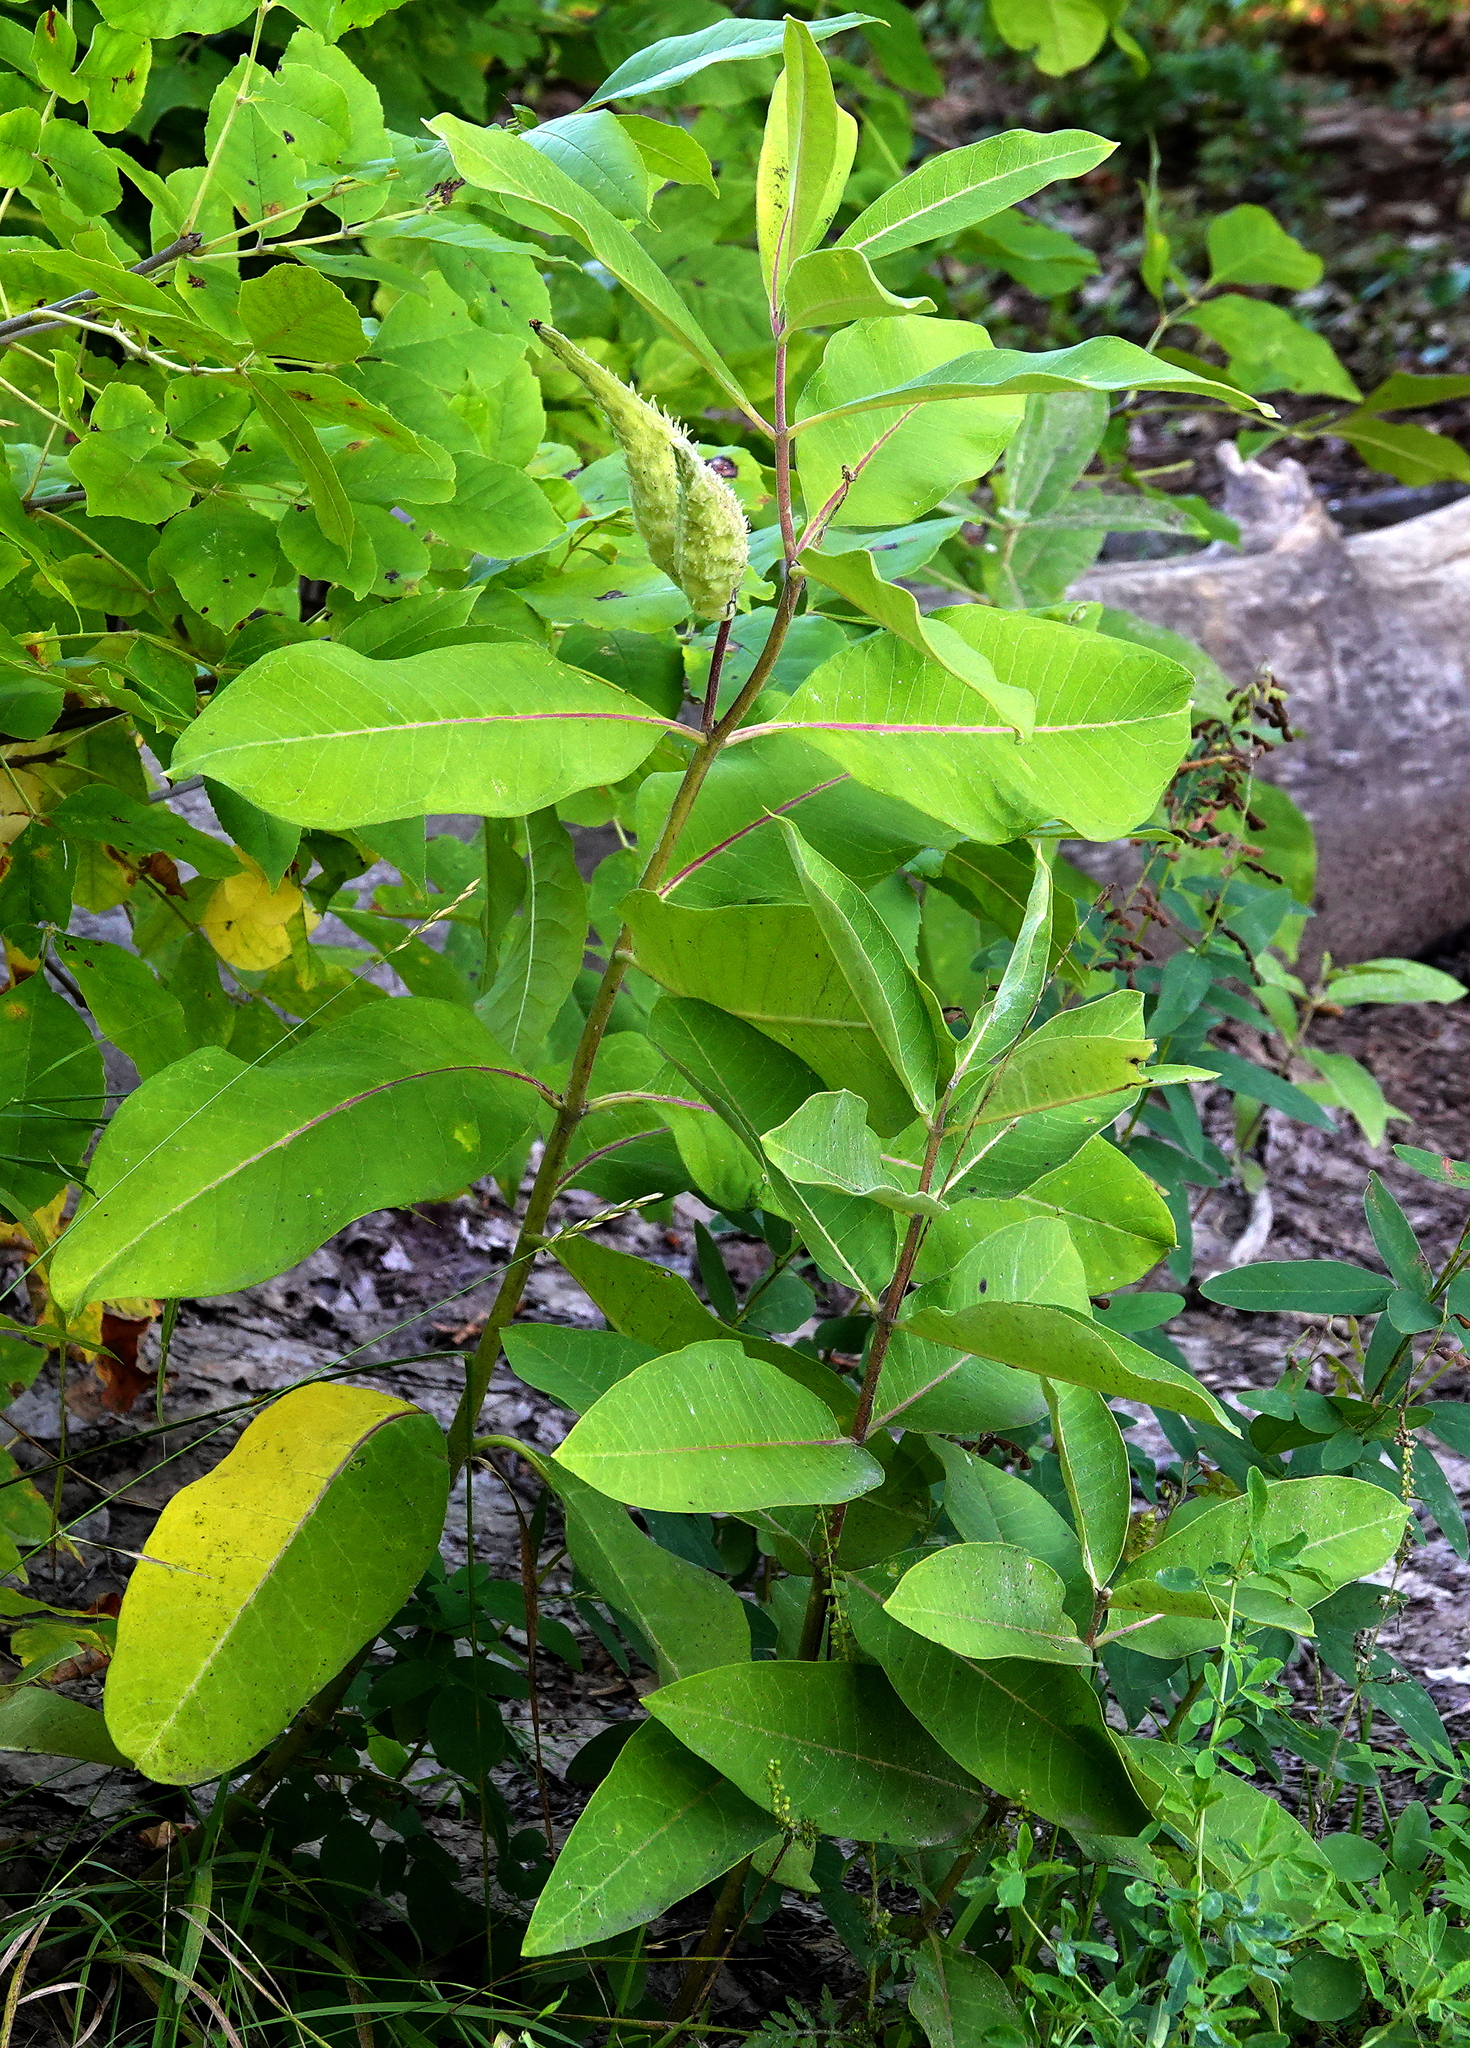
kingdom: Plantae
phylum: Tracheophyta
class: Magnoliopsida
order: Gentianales
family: Apocynaceae
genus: Asclepias
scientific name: Asclepias syriaca
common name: Common milkweed
